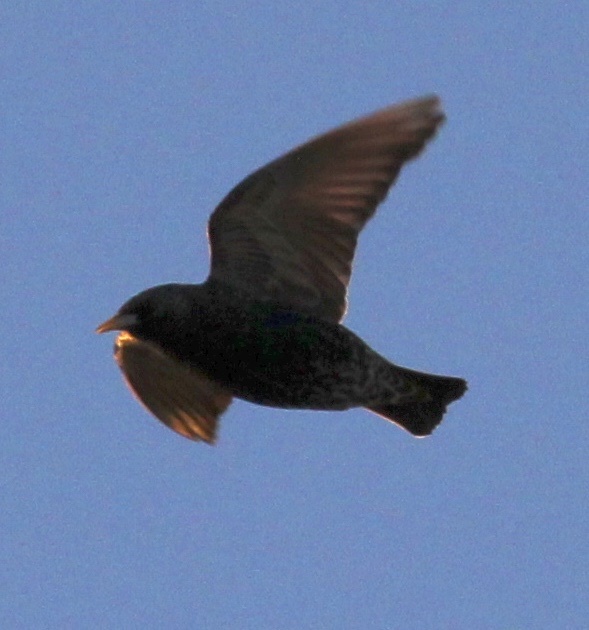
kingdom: Animalia
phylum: Chordata
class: Aves
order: Passeriformes
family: Sturnidae
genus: Sturnus
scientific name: Sturnus vulgaris
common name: Common starling
